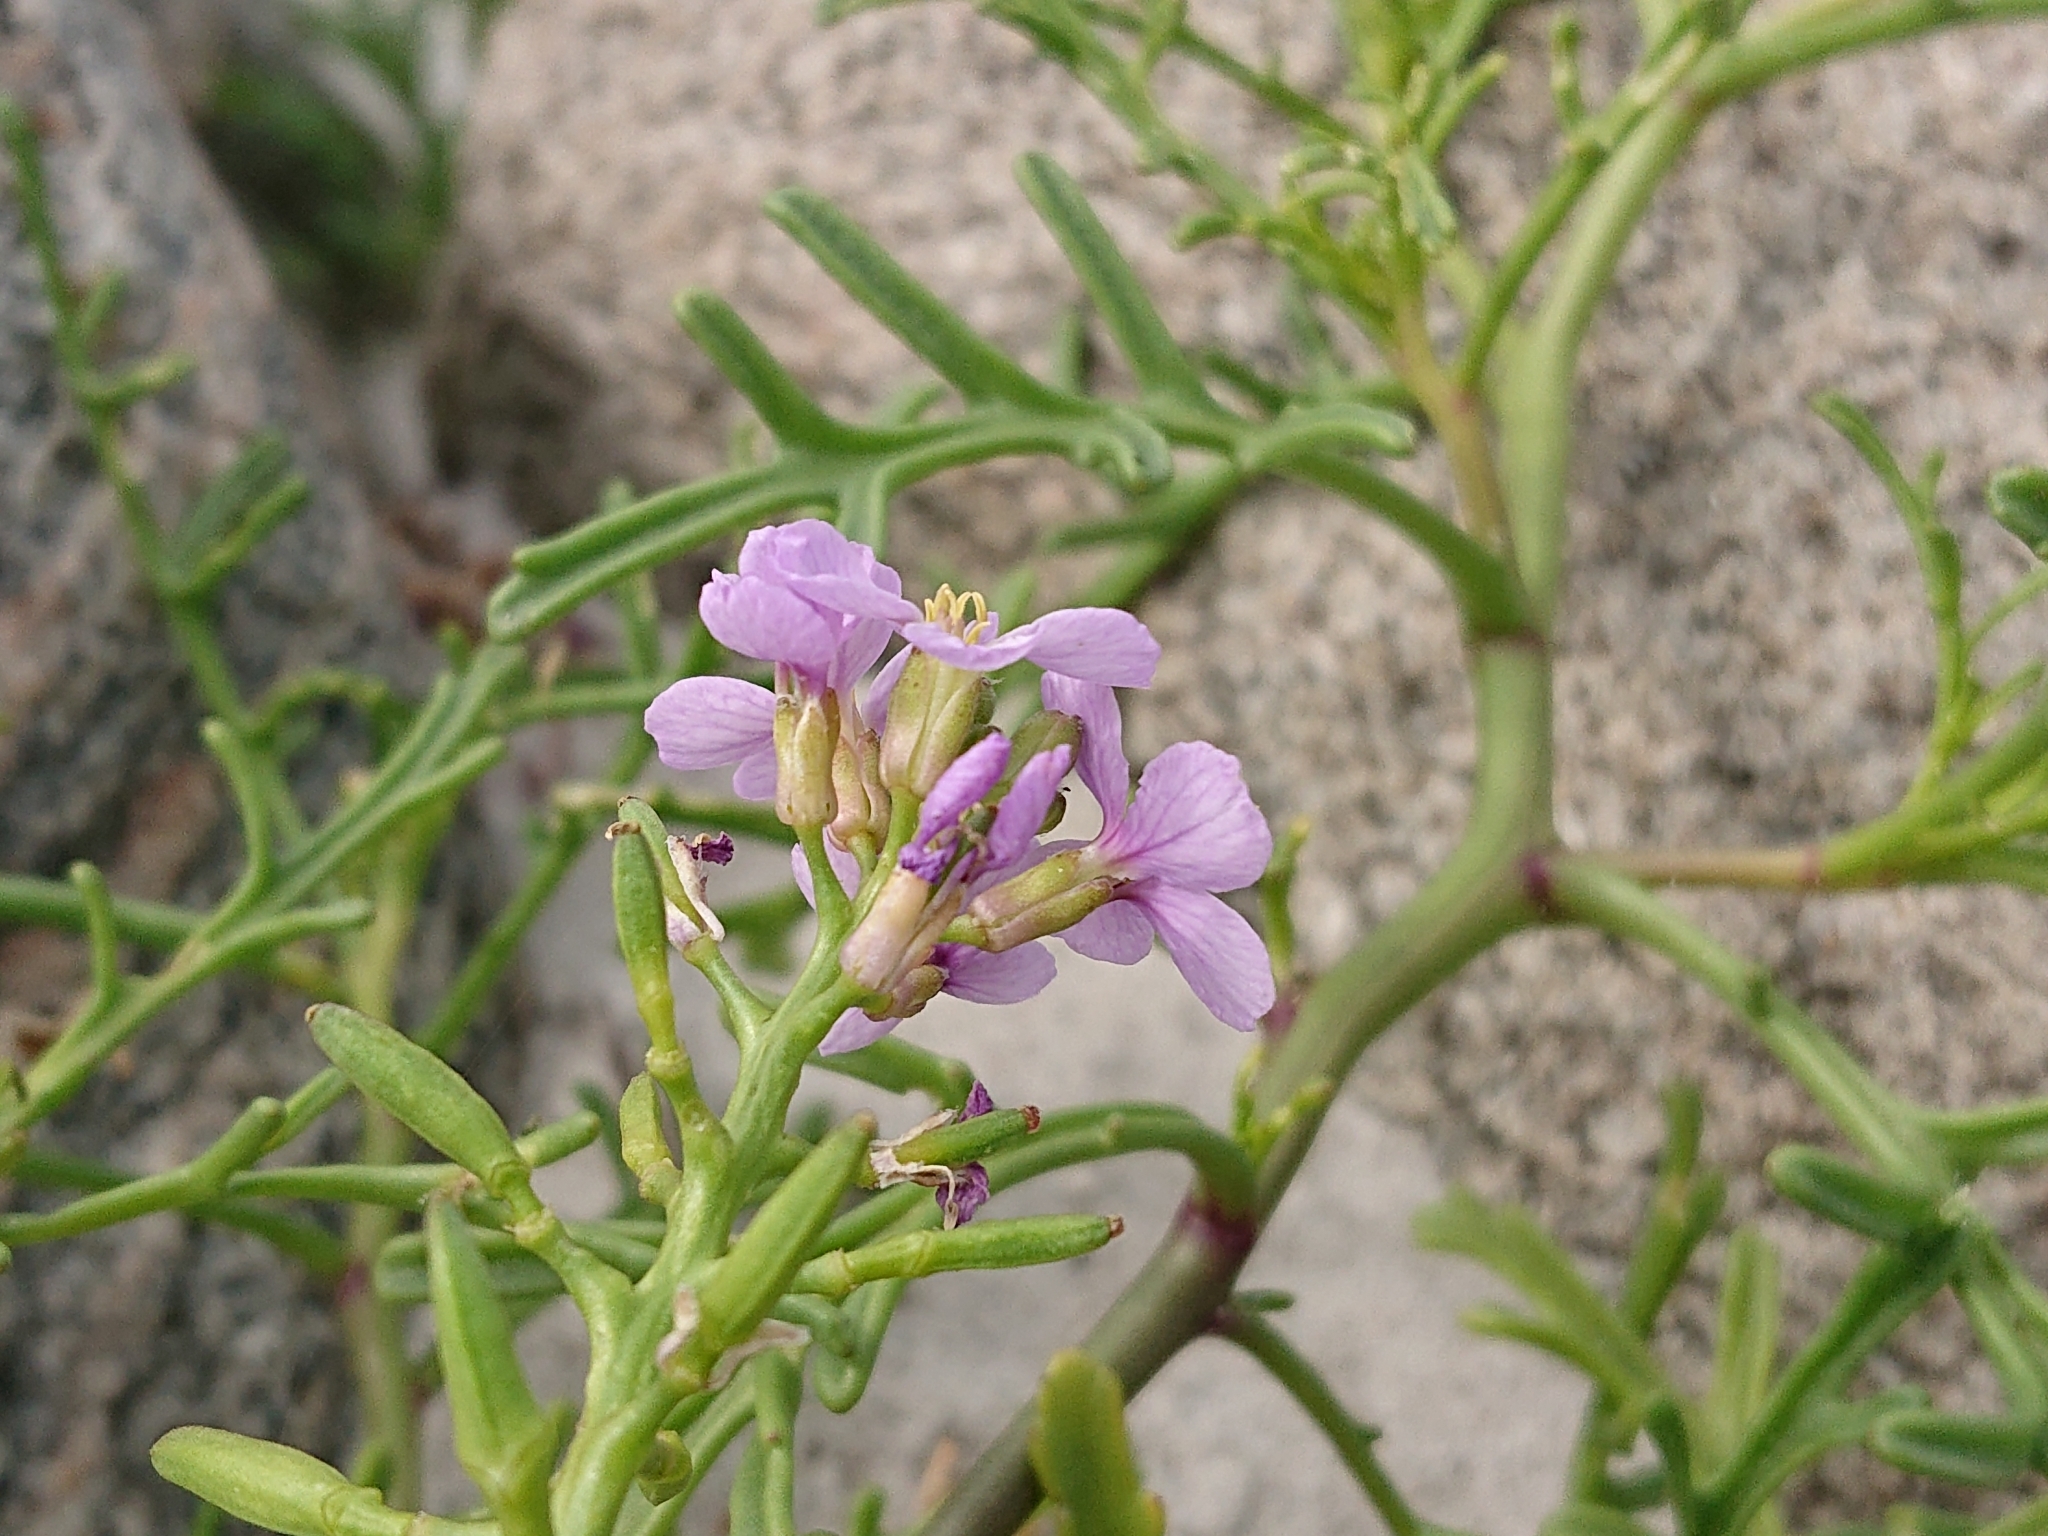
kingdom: Plantae
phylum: Tracheophyta
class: Magnoliopsida
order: Brassicales
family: Brassicaceae
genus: Cakile
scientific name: Cakile maritima
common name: Sea rocket
